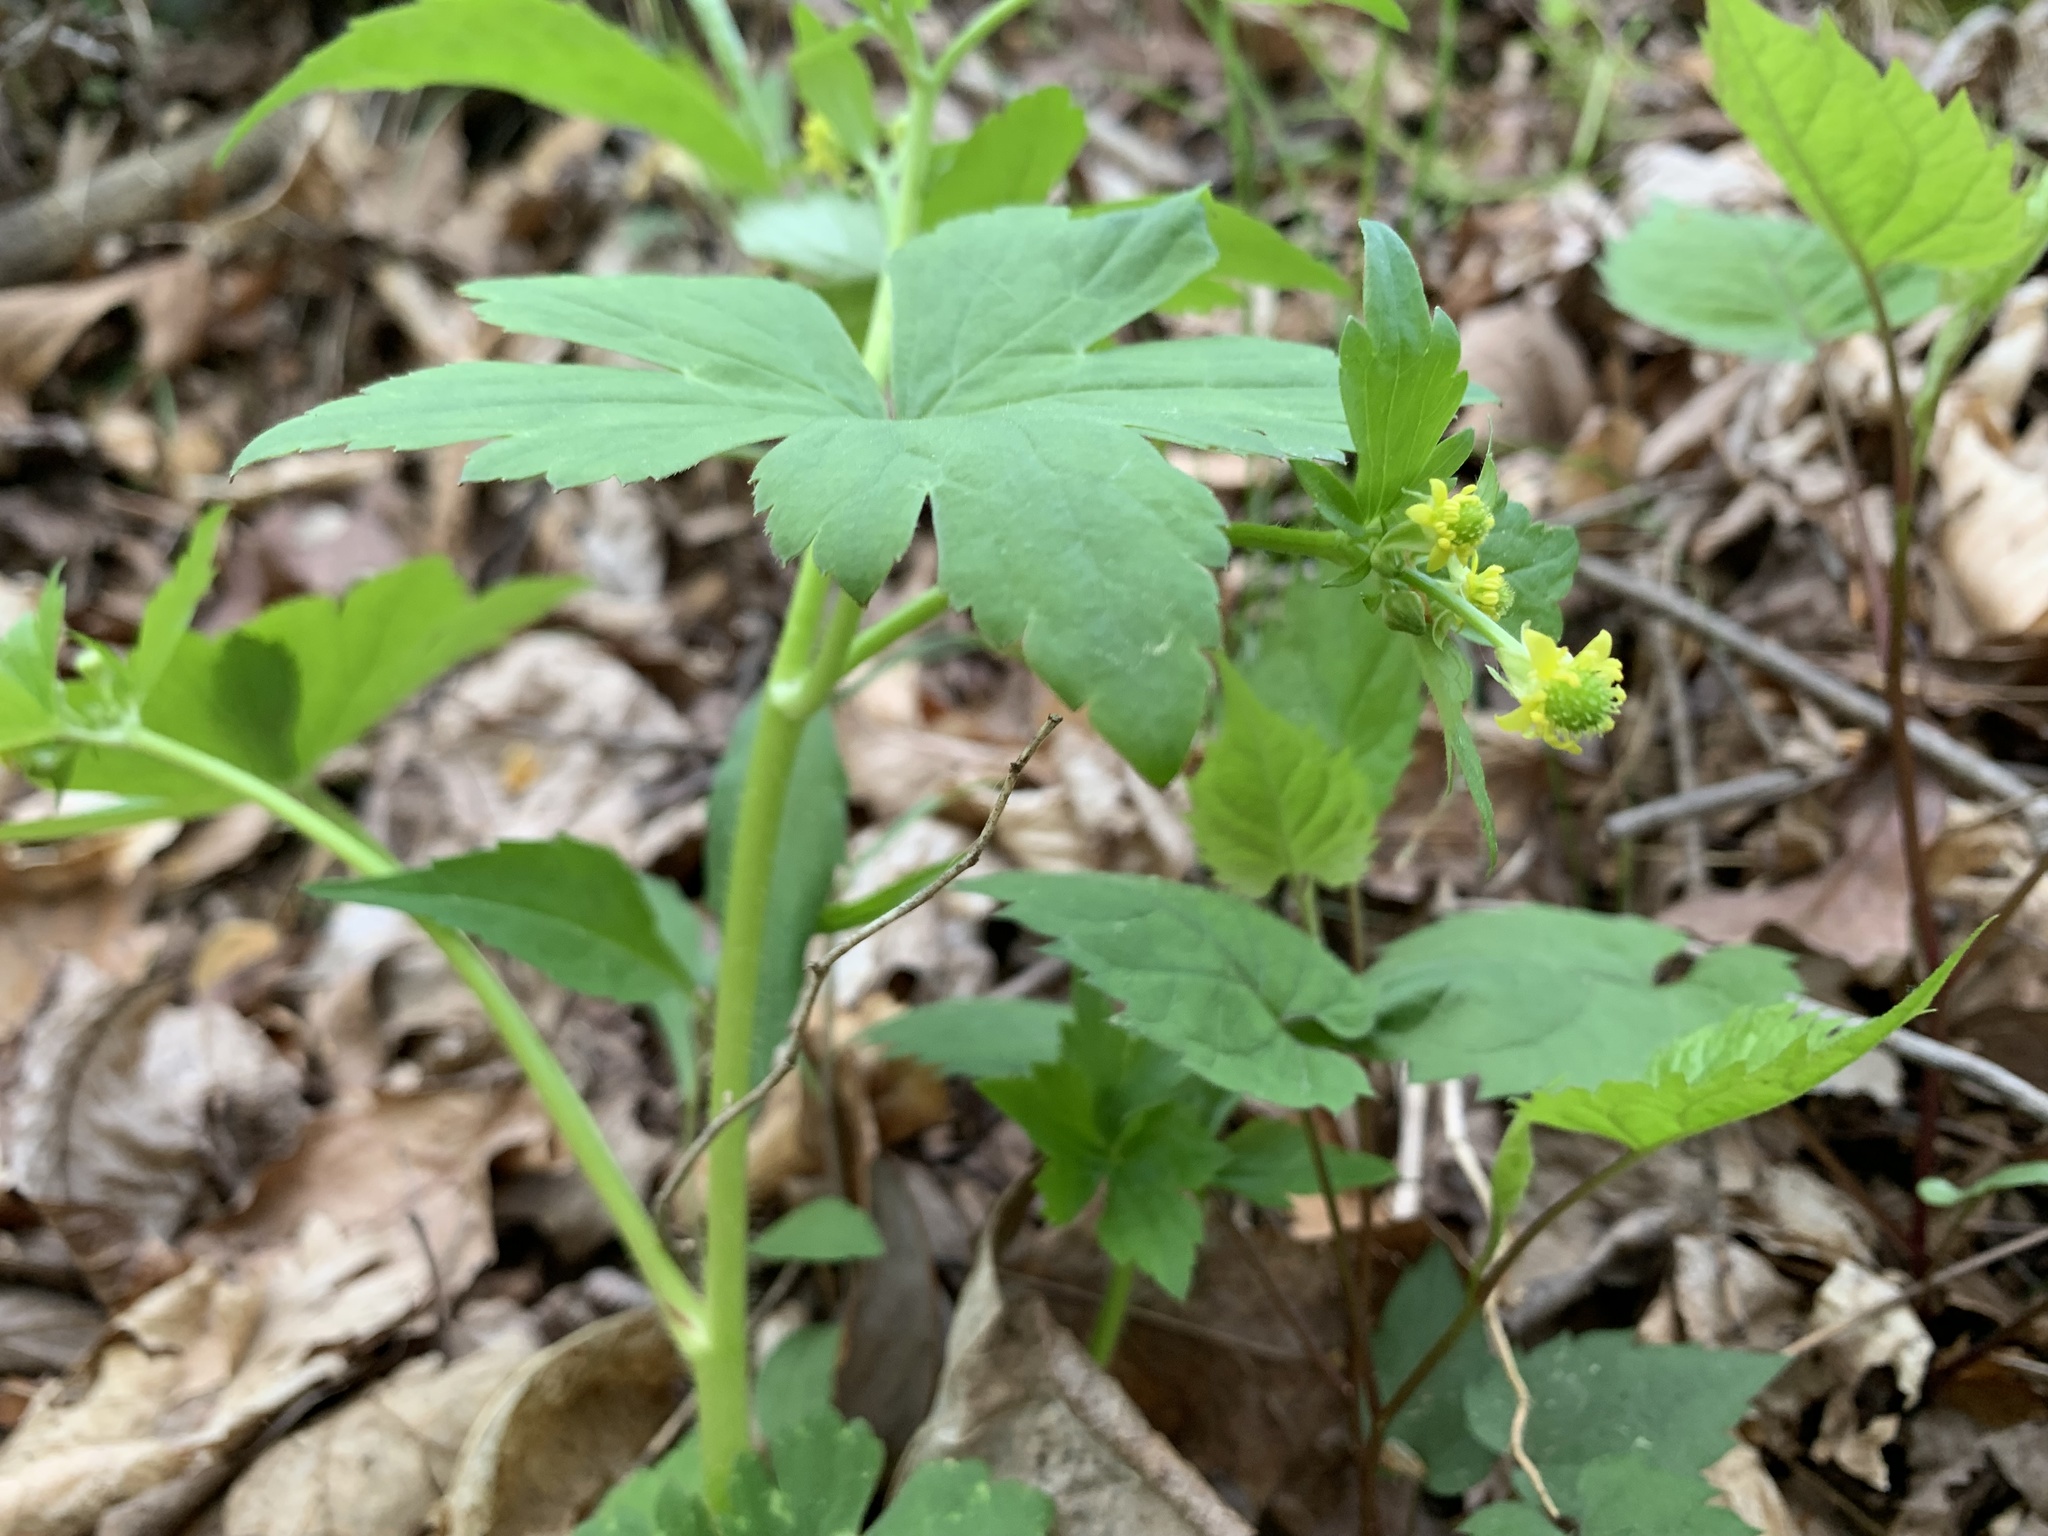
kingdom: Plantae
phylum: Tracheophyta
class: Magnoliopsida
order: Ranunculales
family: Ranunculaceae
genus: Ranunculus
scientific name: Ranunculus recurvatus
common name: Blisterwort
